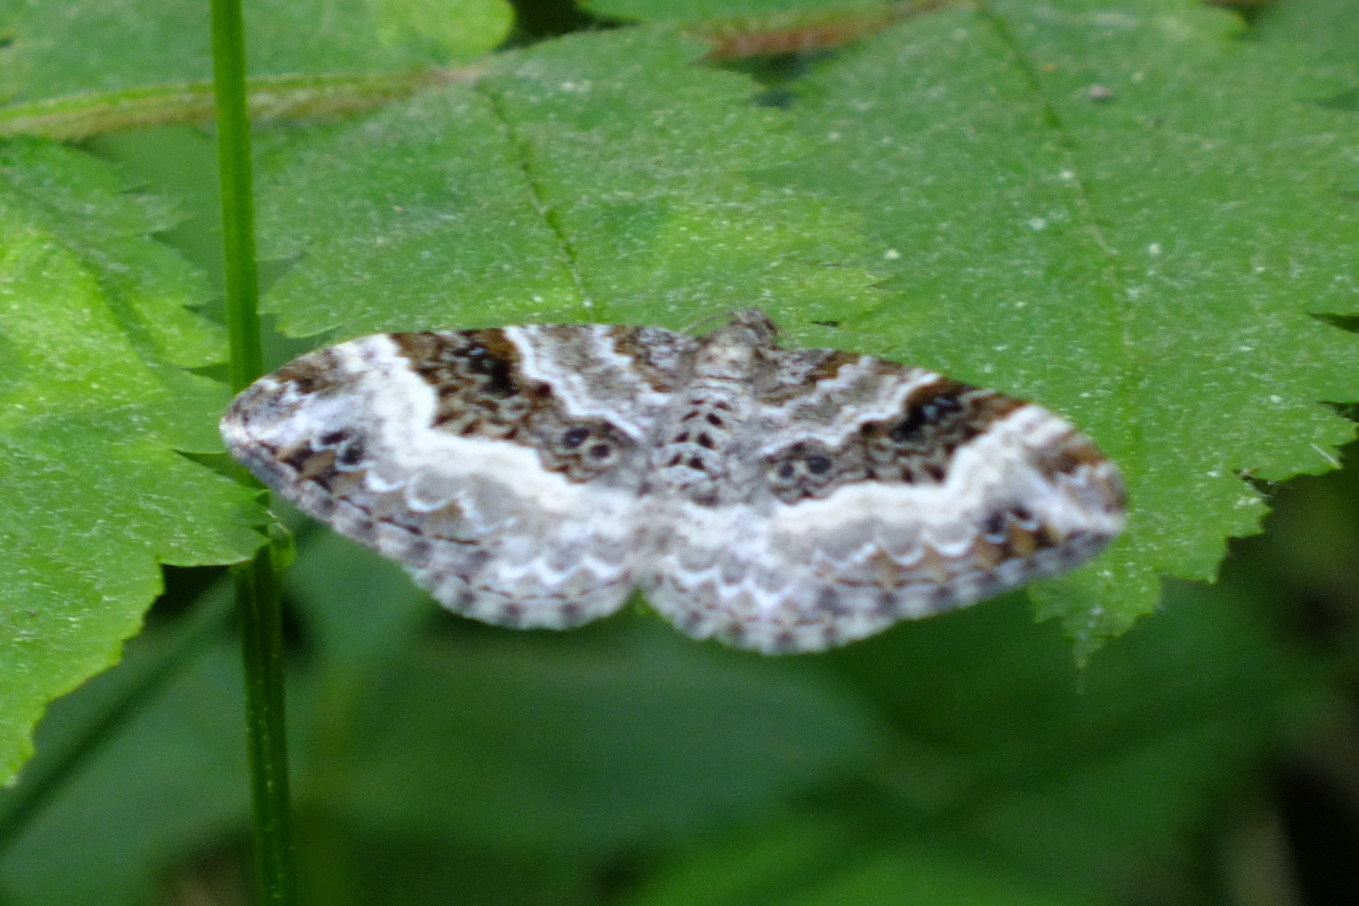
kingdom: Animalia
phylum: Arthropoda
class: Insecta
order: Lepidoptera
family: Geometridae
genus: Epirrhoe
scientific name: Epirrhoe alternata
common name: Common carpet
